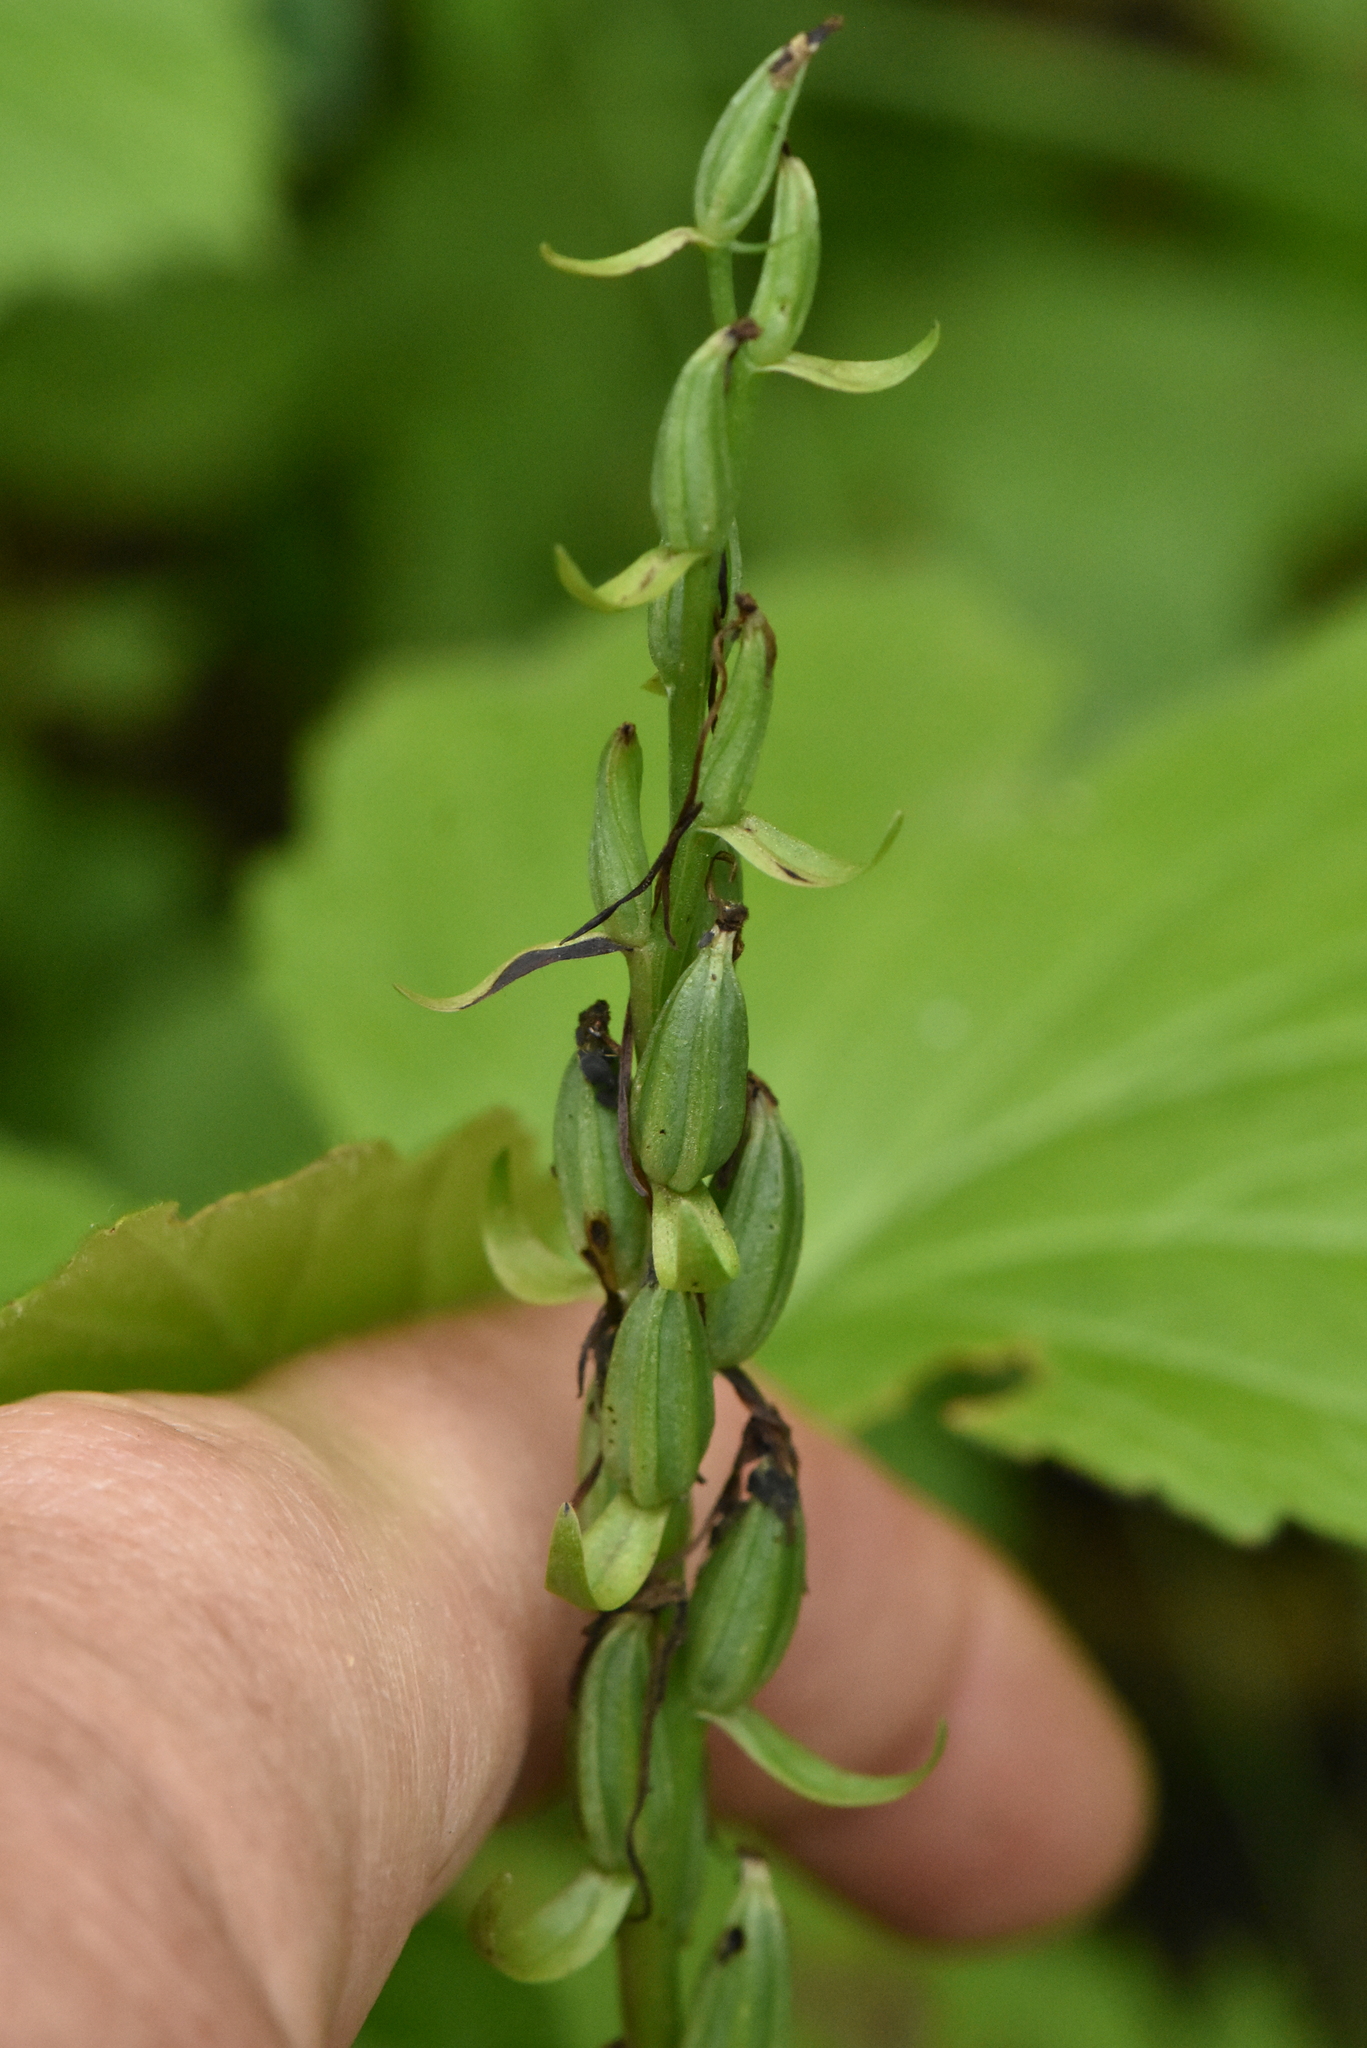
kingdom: Plantae
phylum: Tracheophyta
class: Liliopsida
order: Asparagales
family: Orchidaceae
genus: Platanthera
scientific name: Platanthera bifolia
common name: Lesser butterfly-orchid
